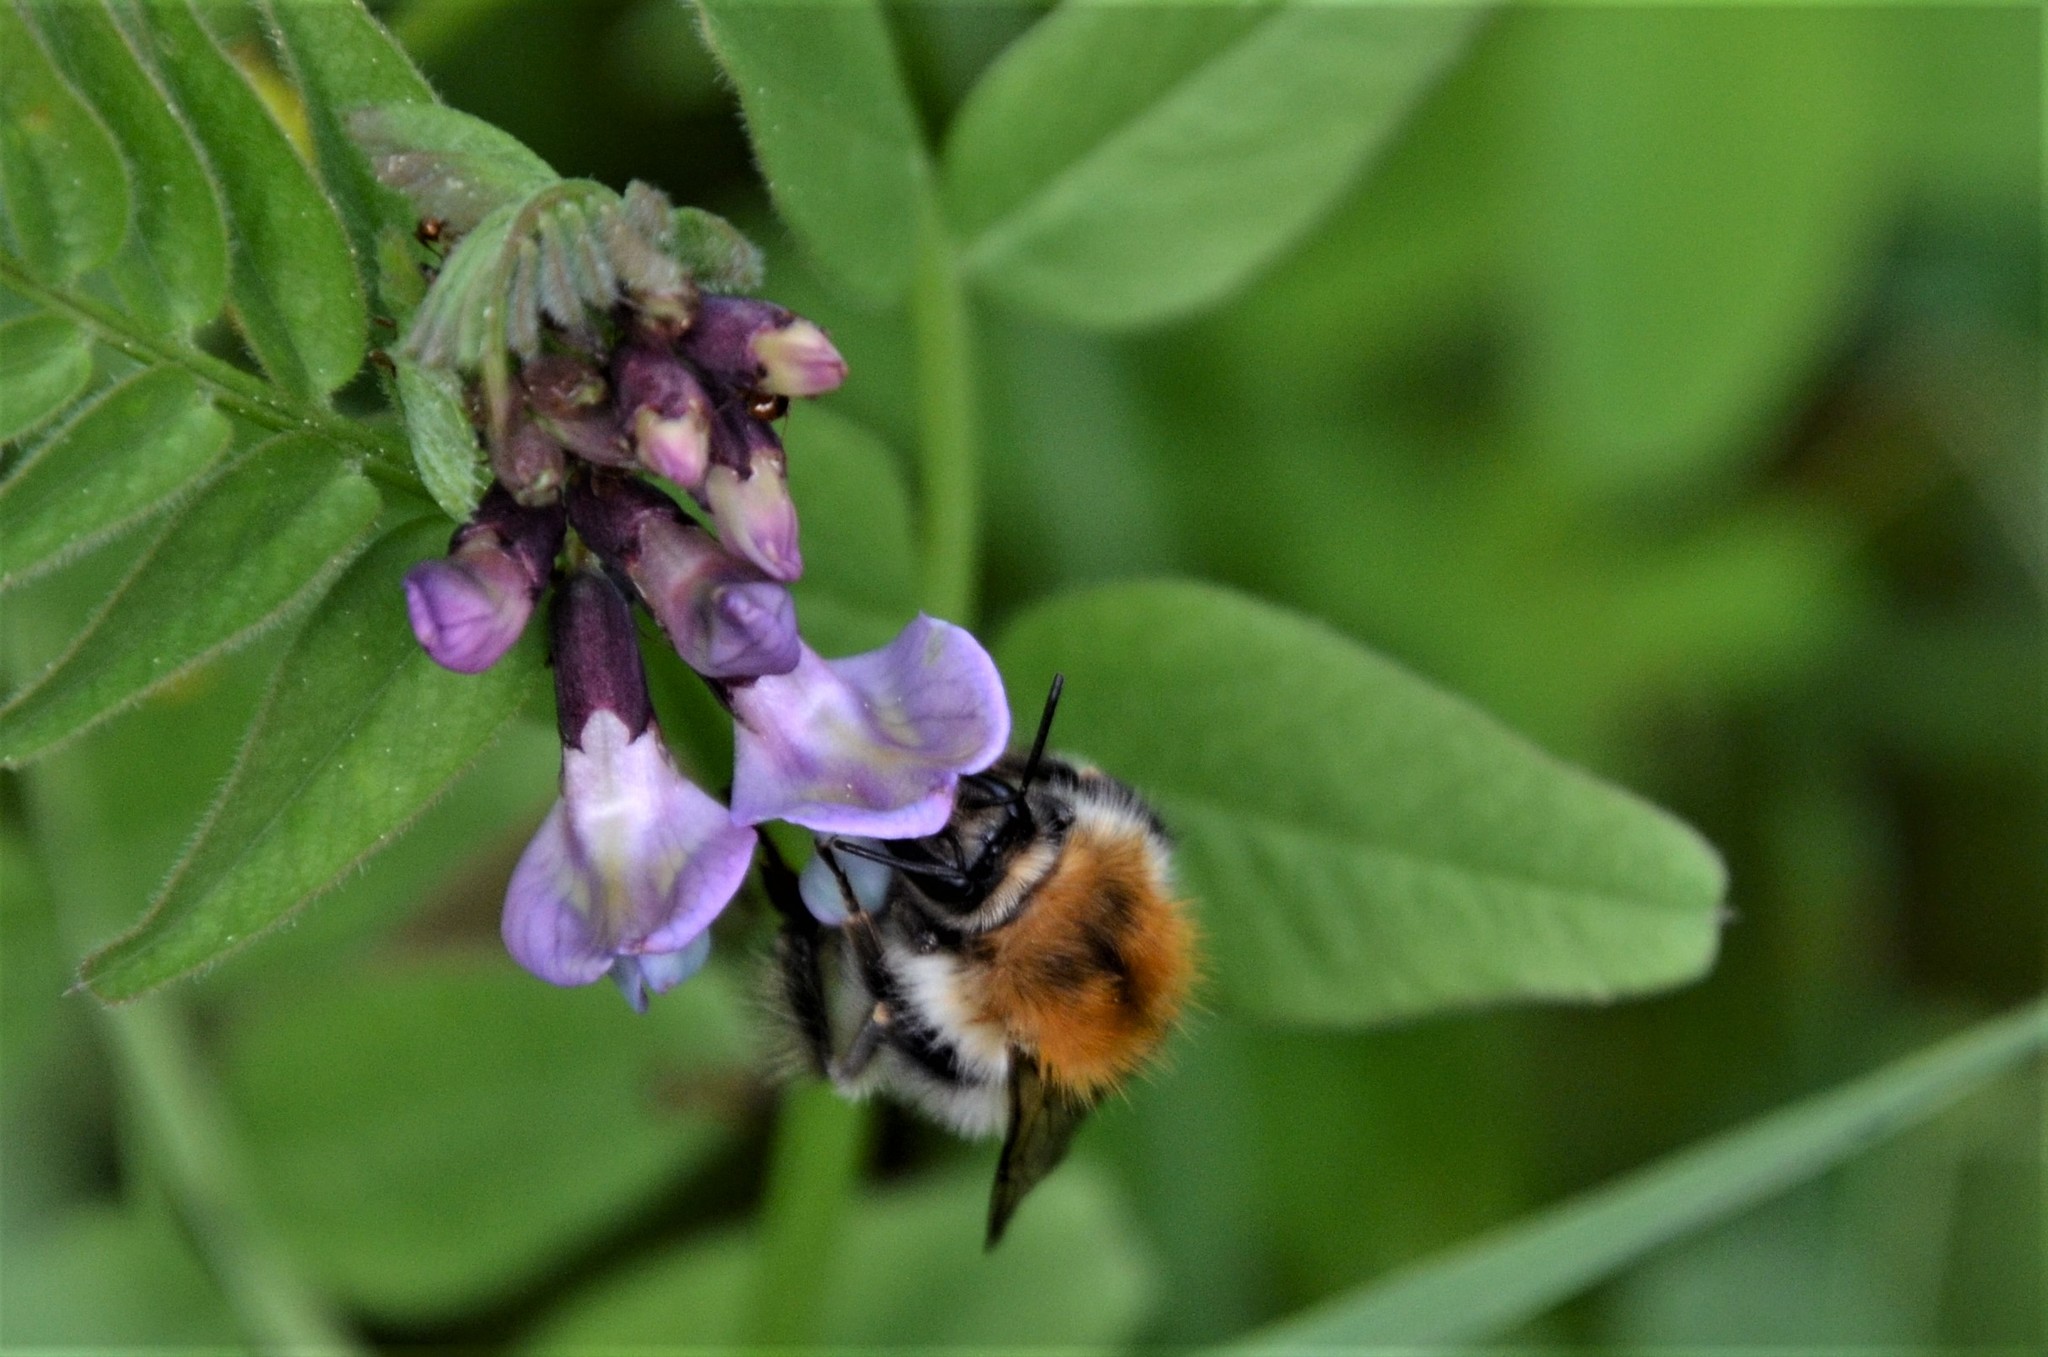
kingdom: Animalia
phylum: Arthropoda
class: Insecta
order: Hymenoptera
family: Apidae
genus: Bombus
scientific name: Bombus pascuorum
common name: Common carder bee
